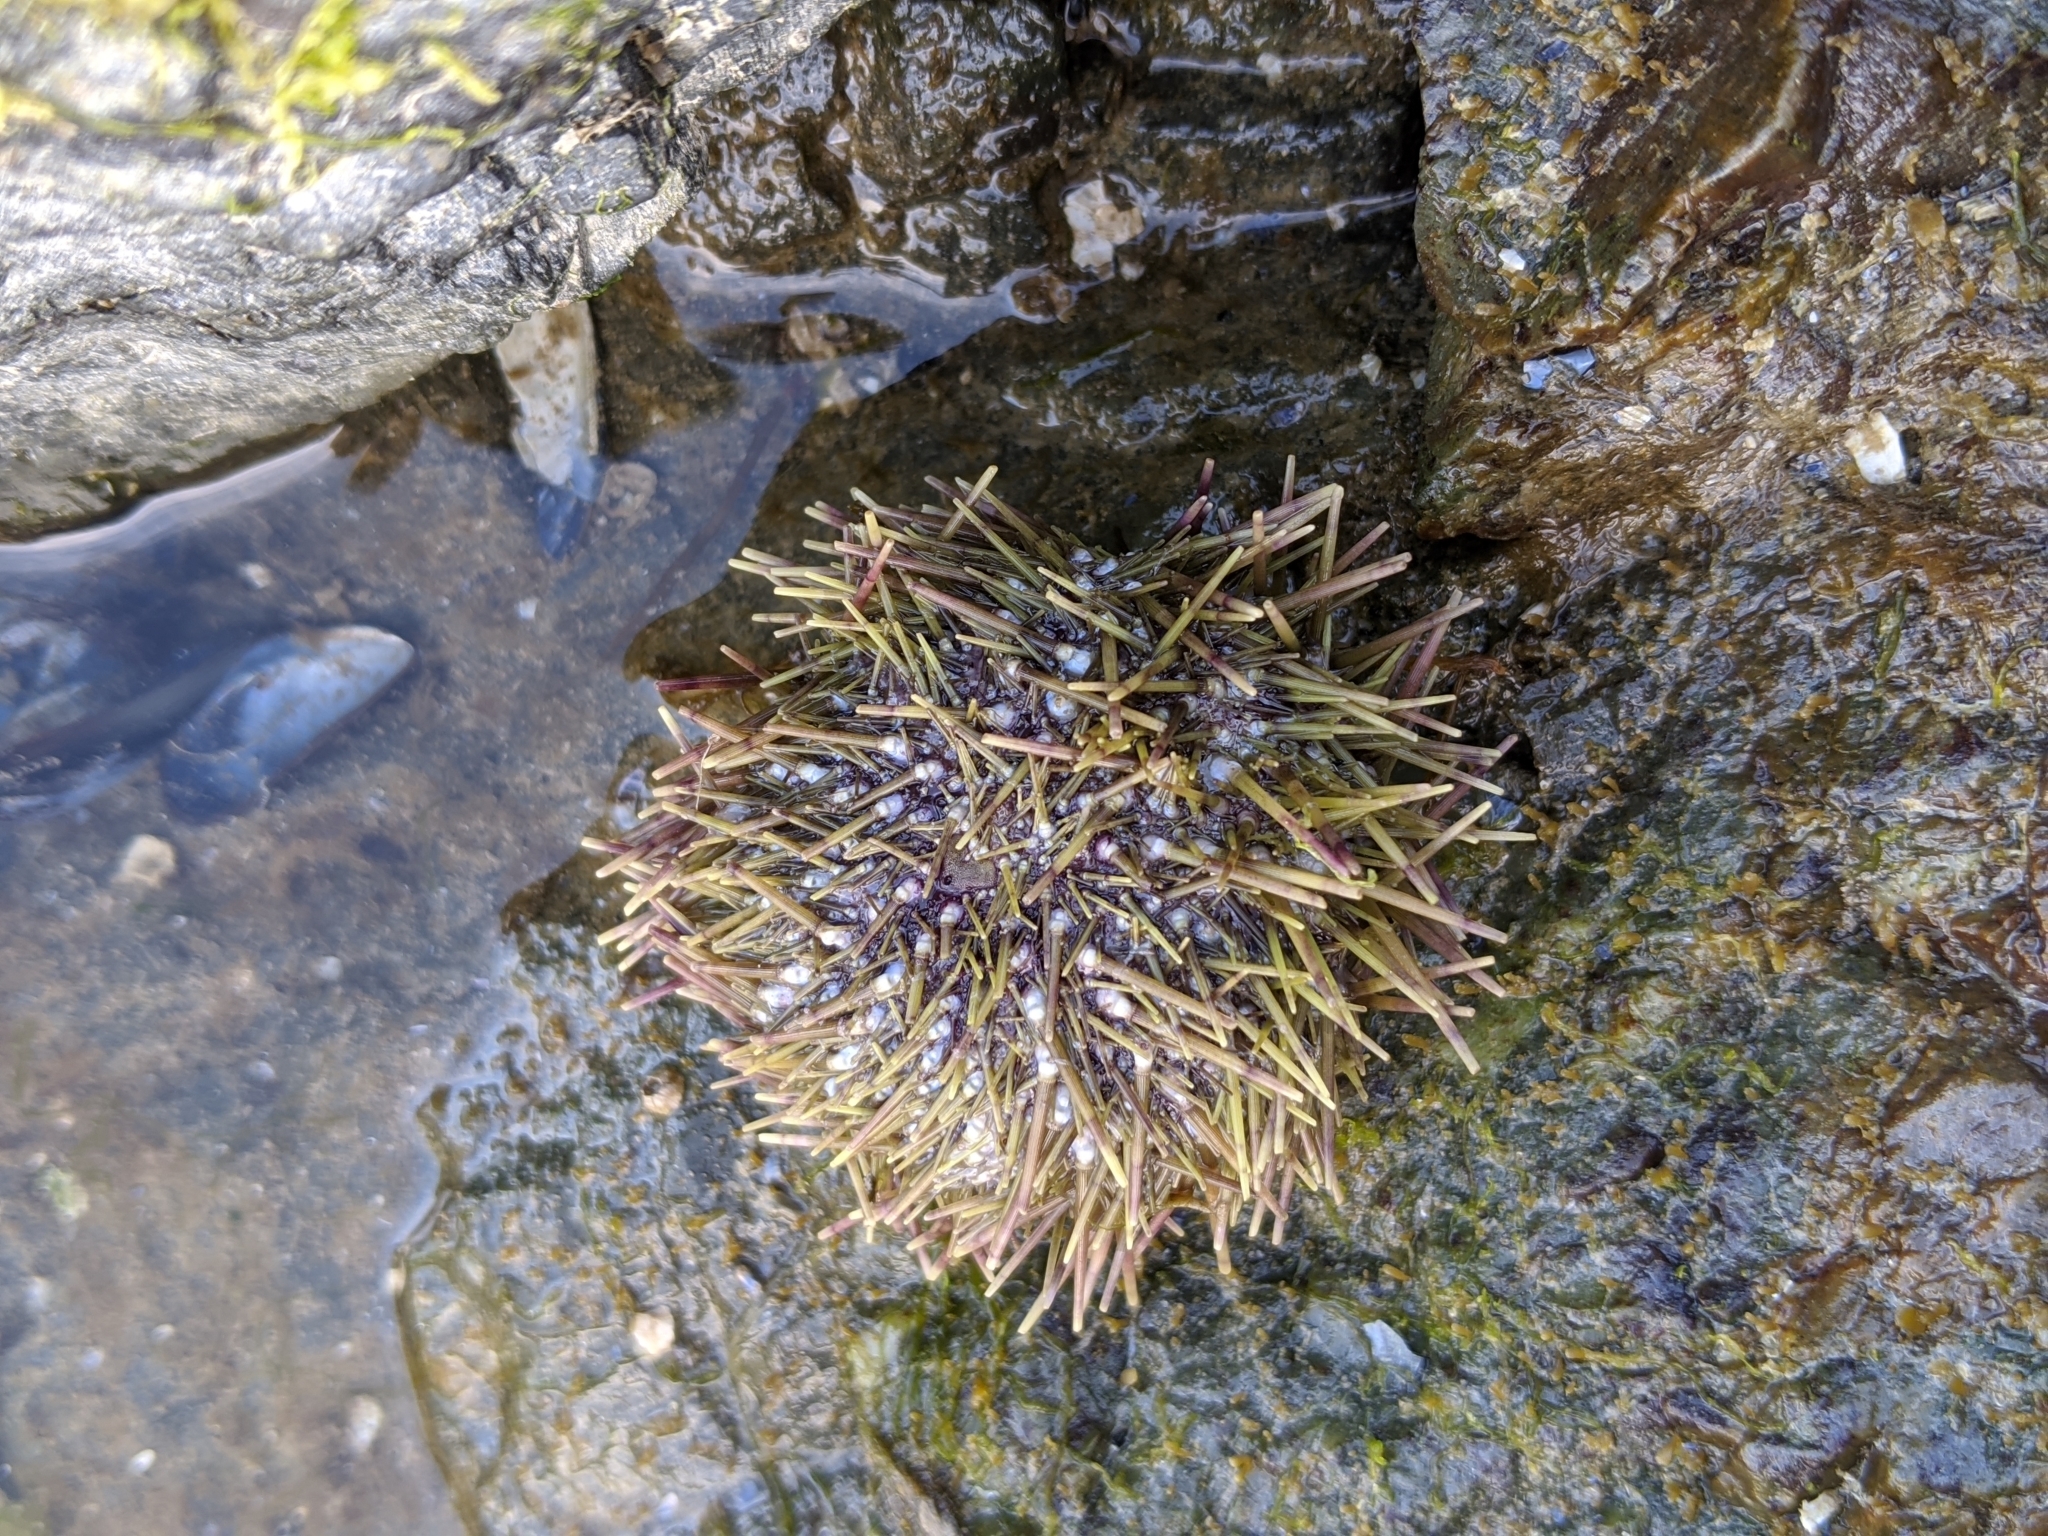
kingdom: Animalia
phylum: Echinodermata
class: Echinoidea
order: Camarodonta
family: Strongylocentrotidae
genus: Strongylocentrotus
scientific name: Strongylocentrotus droebachiensis
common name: Northern sea urchin
